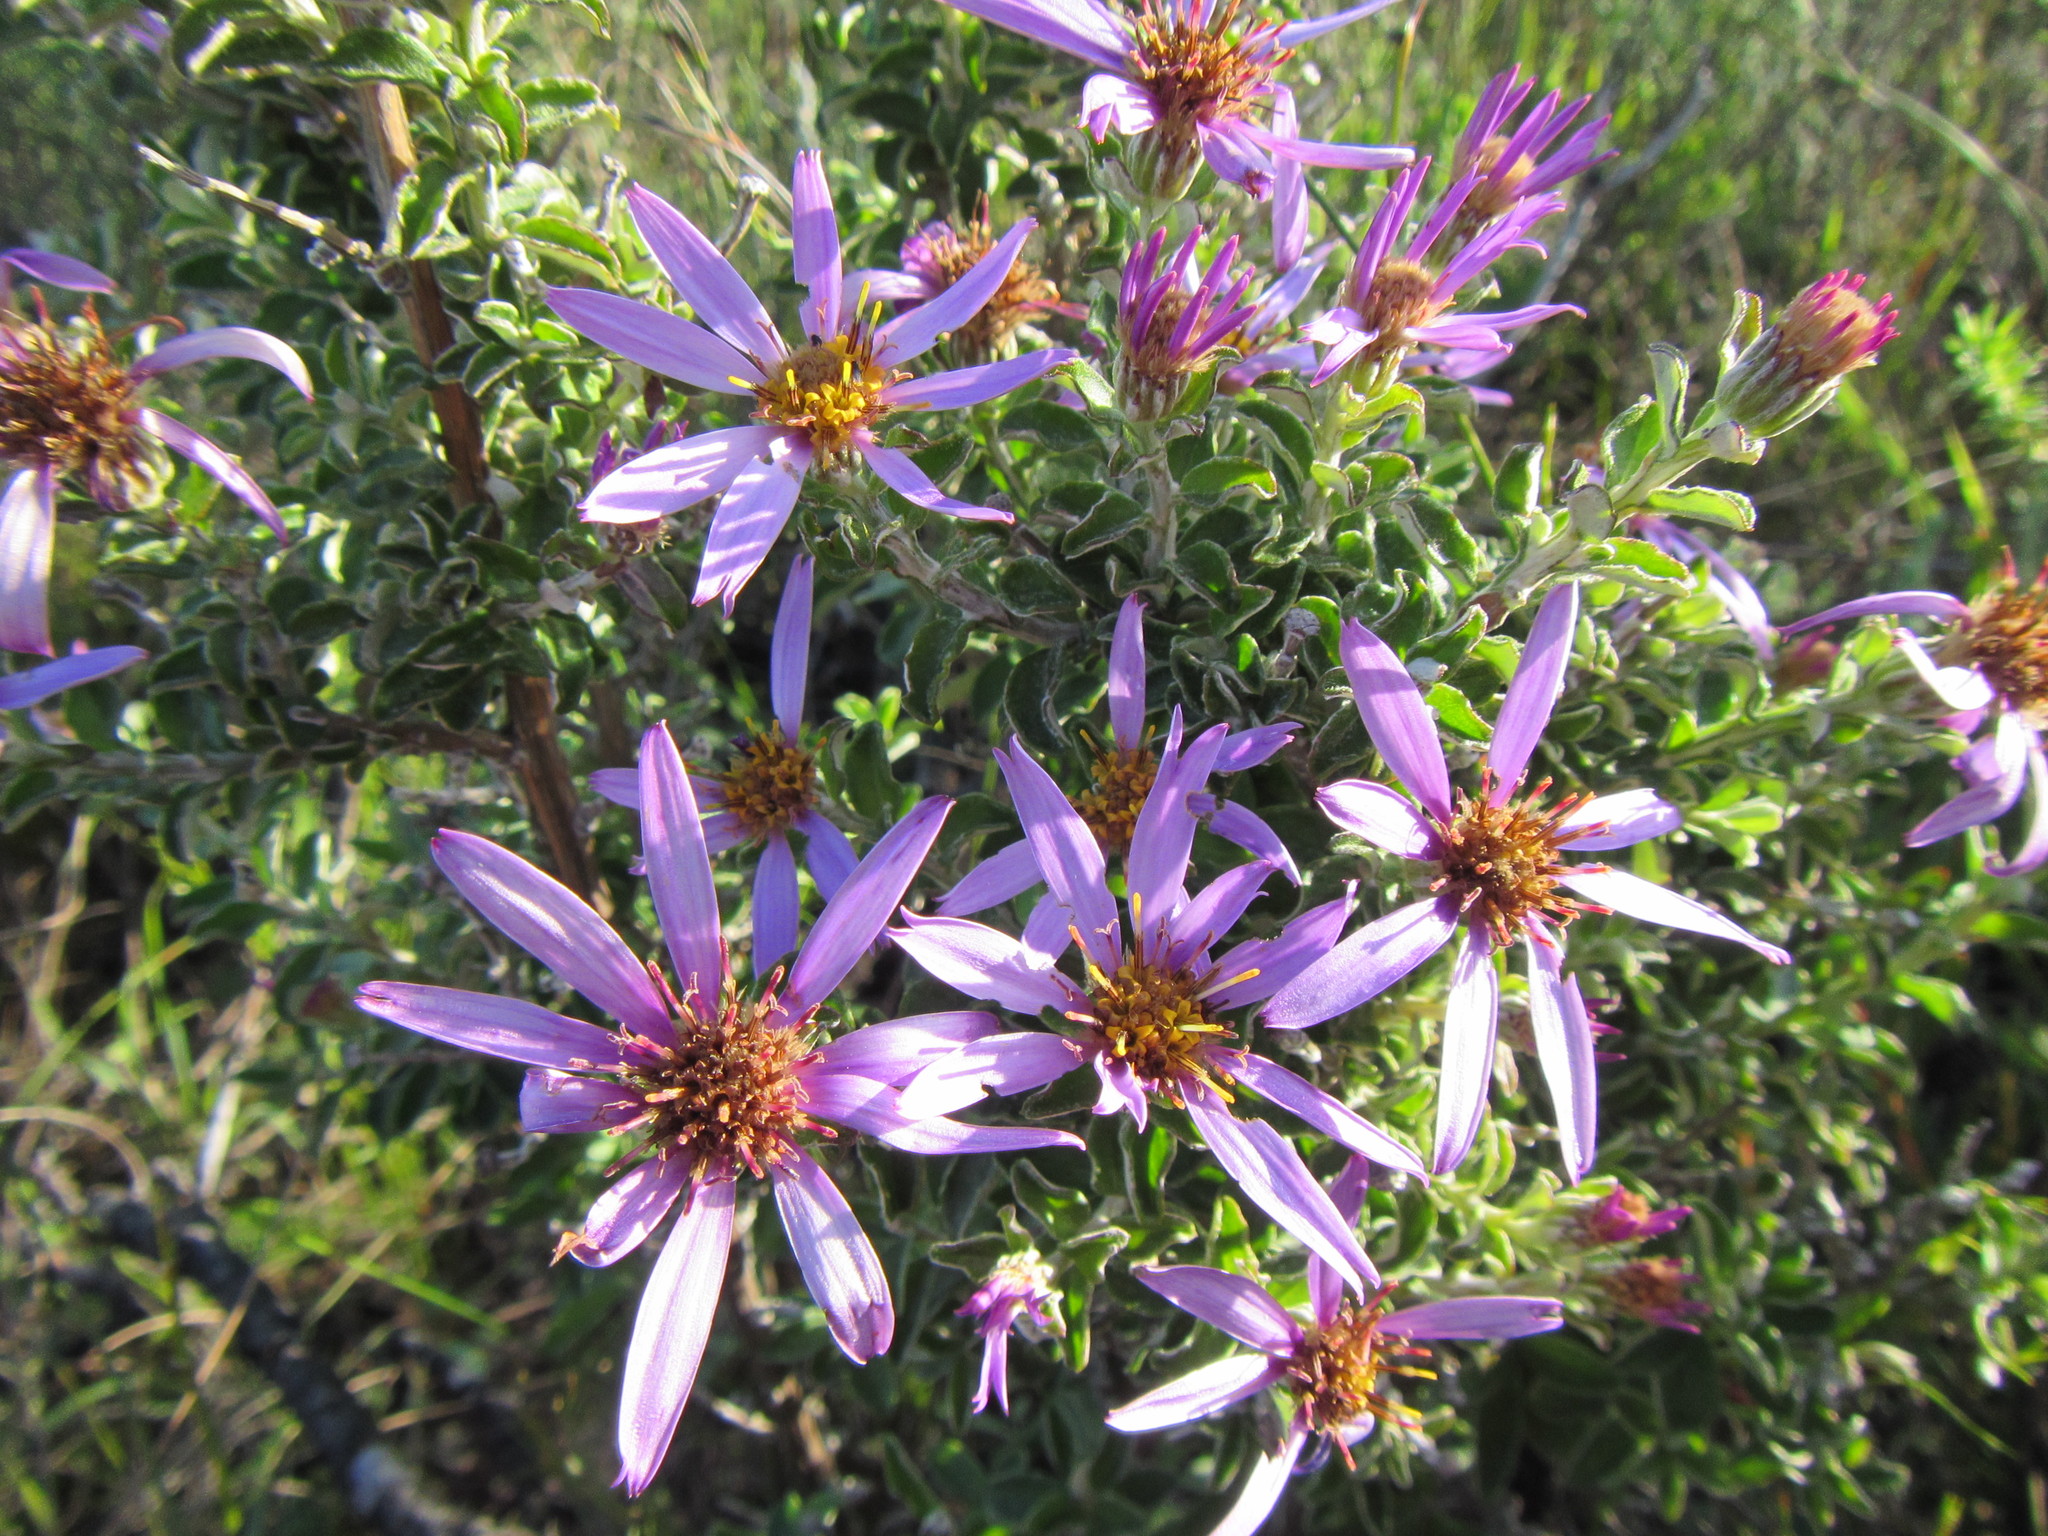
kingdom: Plantae
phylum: Tracheophyta
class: Magnoliopsida
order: Asterales
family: Asteraceae
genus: Printzia
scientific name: Printzia polifolia
